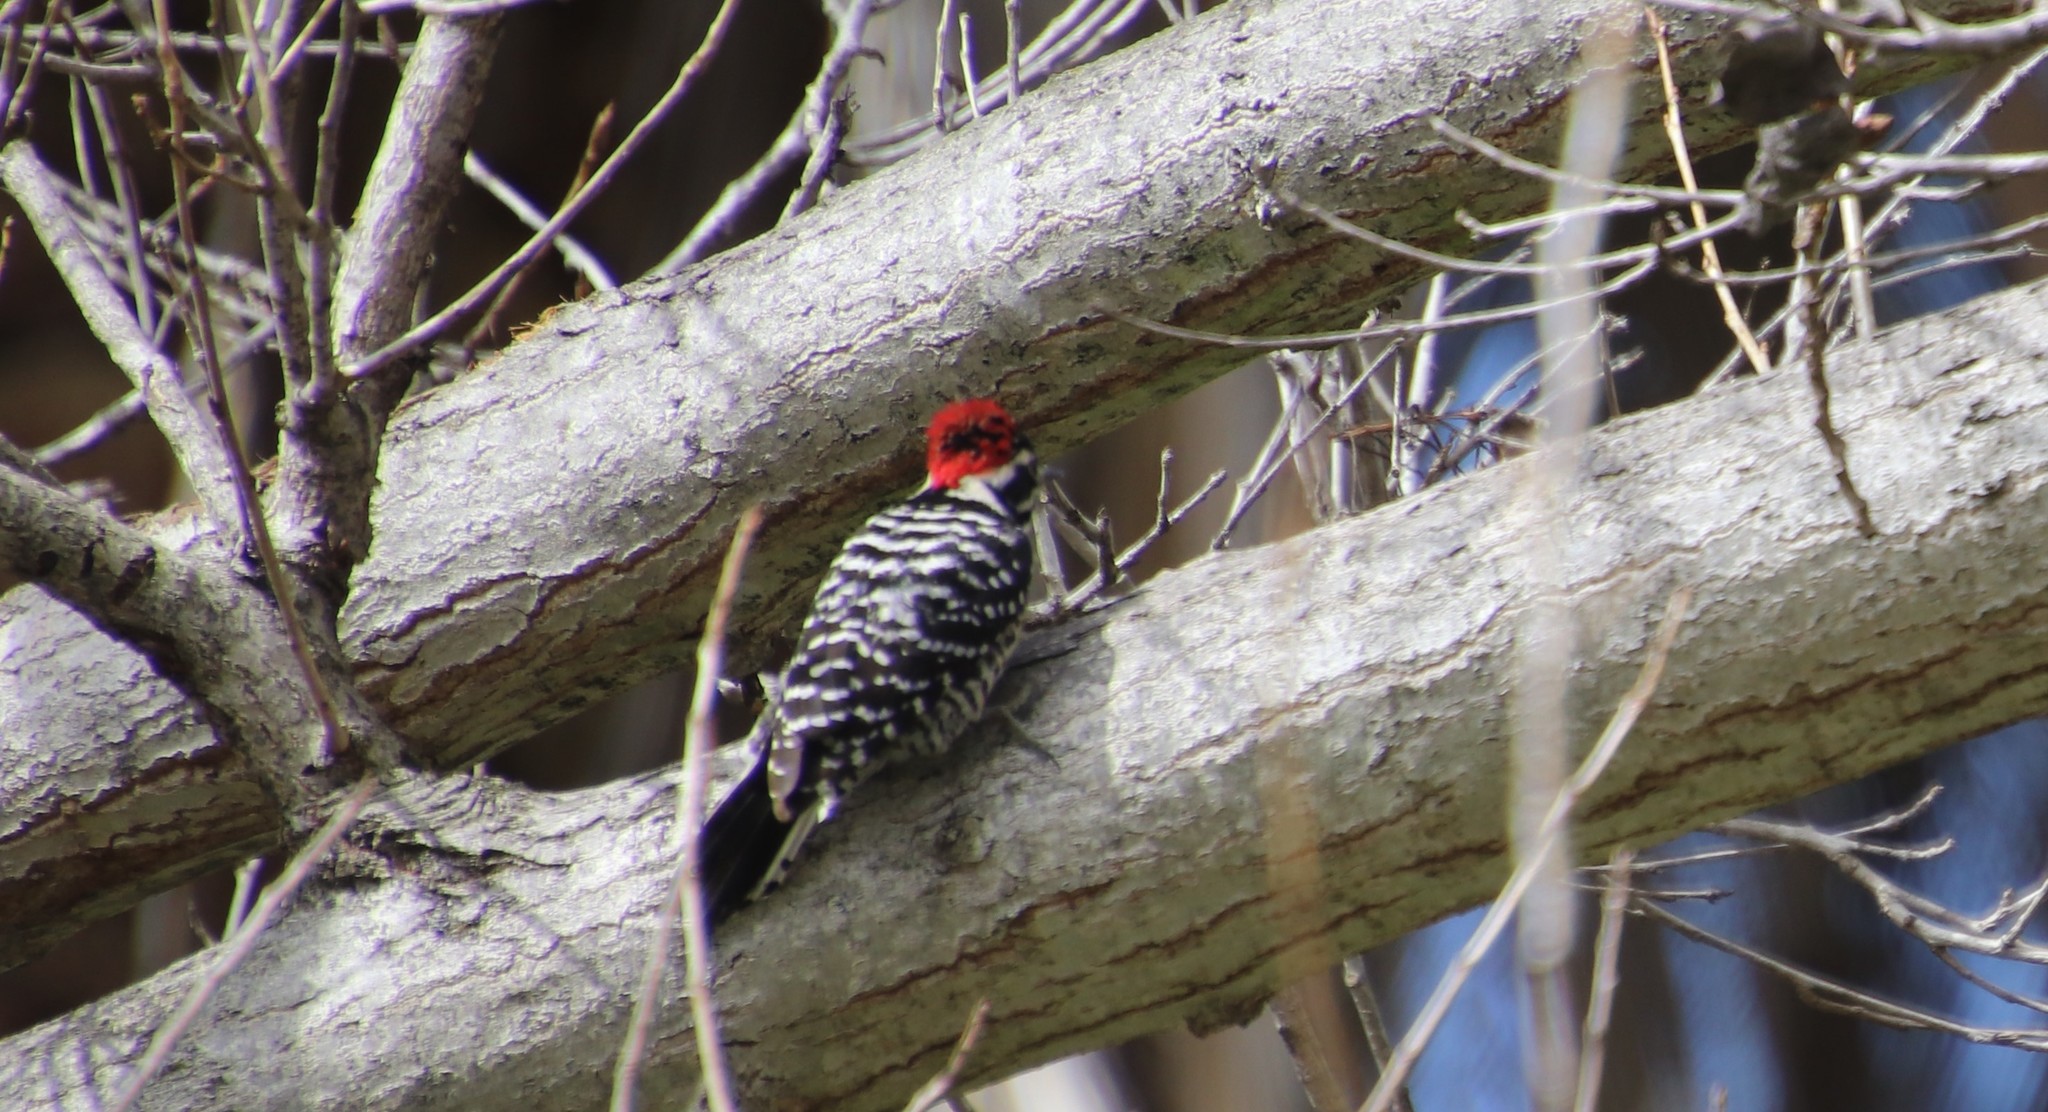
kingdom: Animalia
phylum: Chordata
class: Aves
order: Piciformes
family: Picidae
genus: Dryobates
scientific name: Dryobates nuttallii
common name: Nuttall's woodpecker
